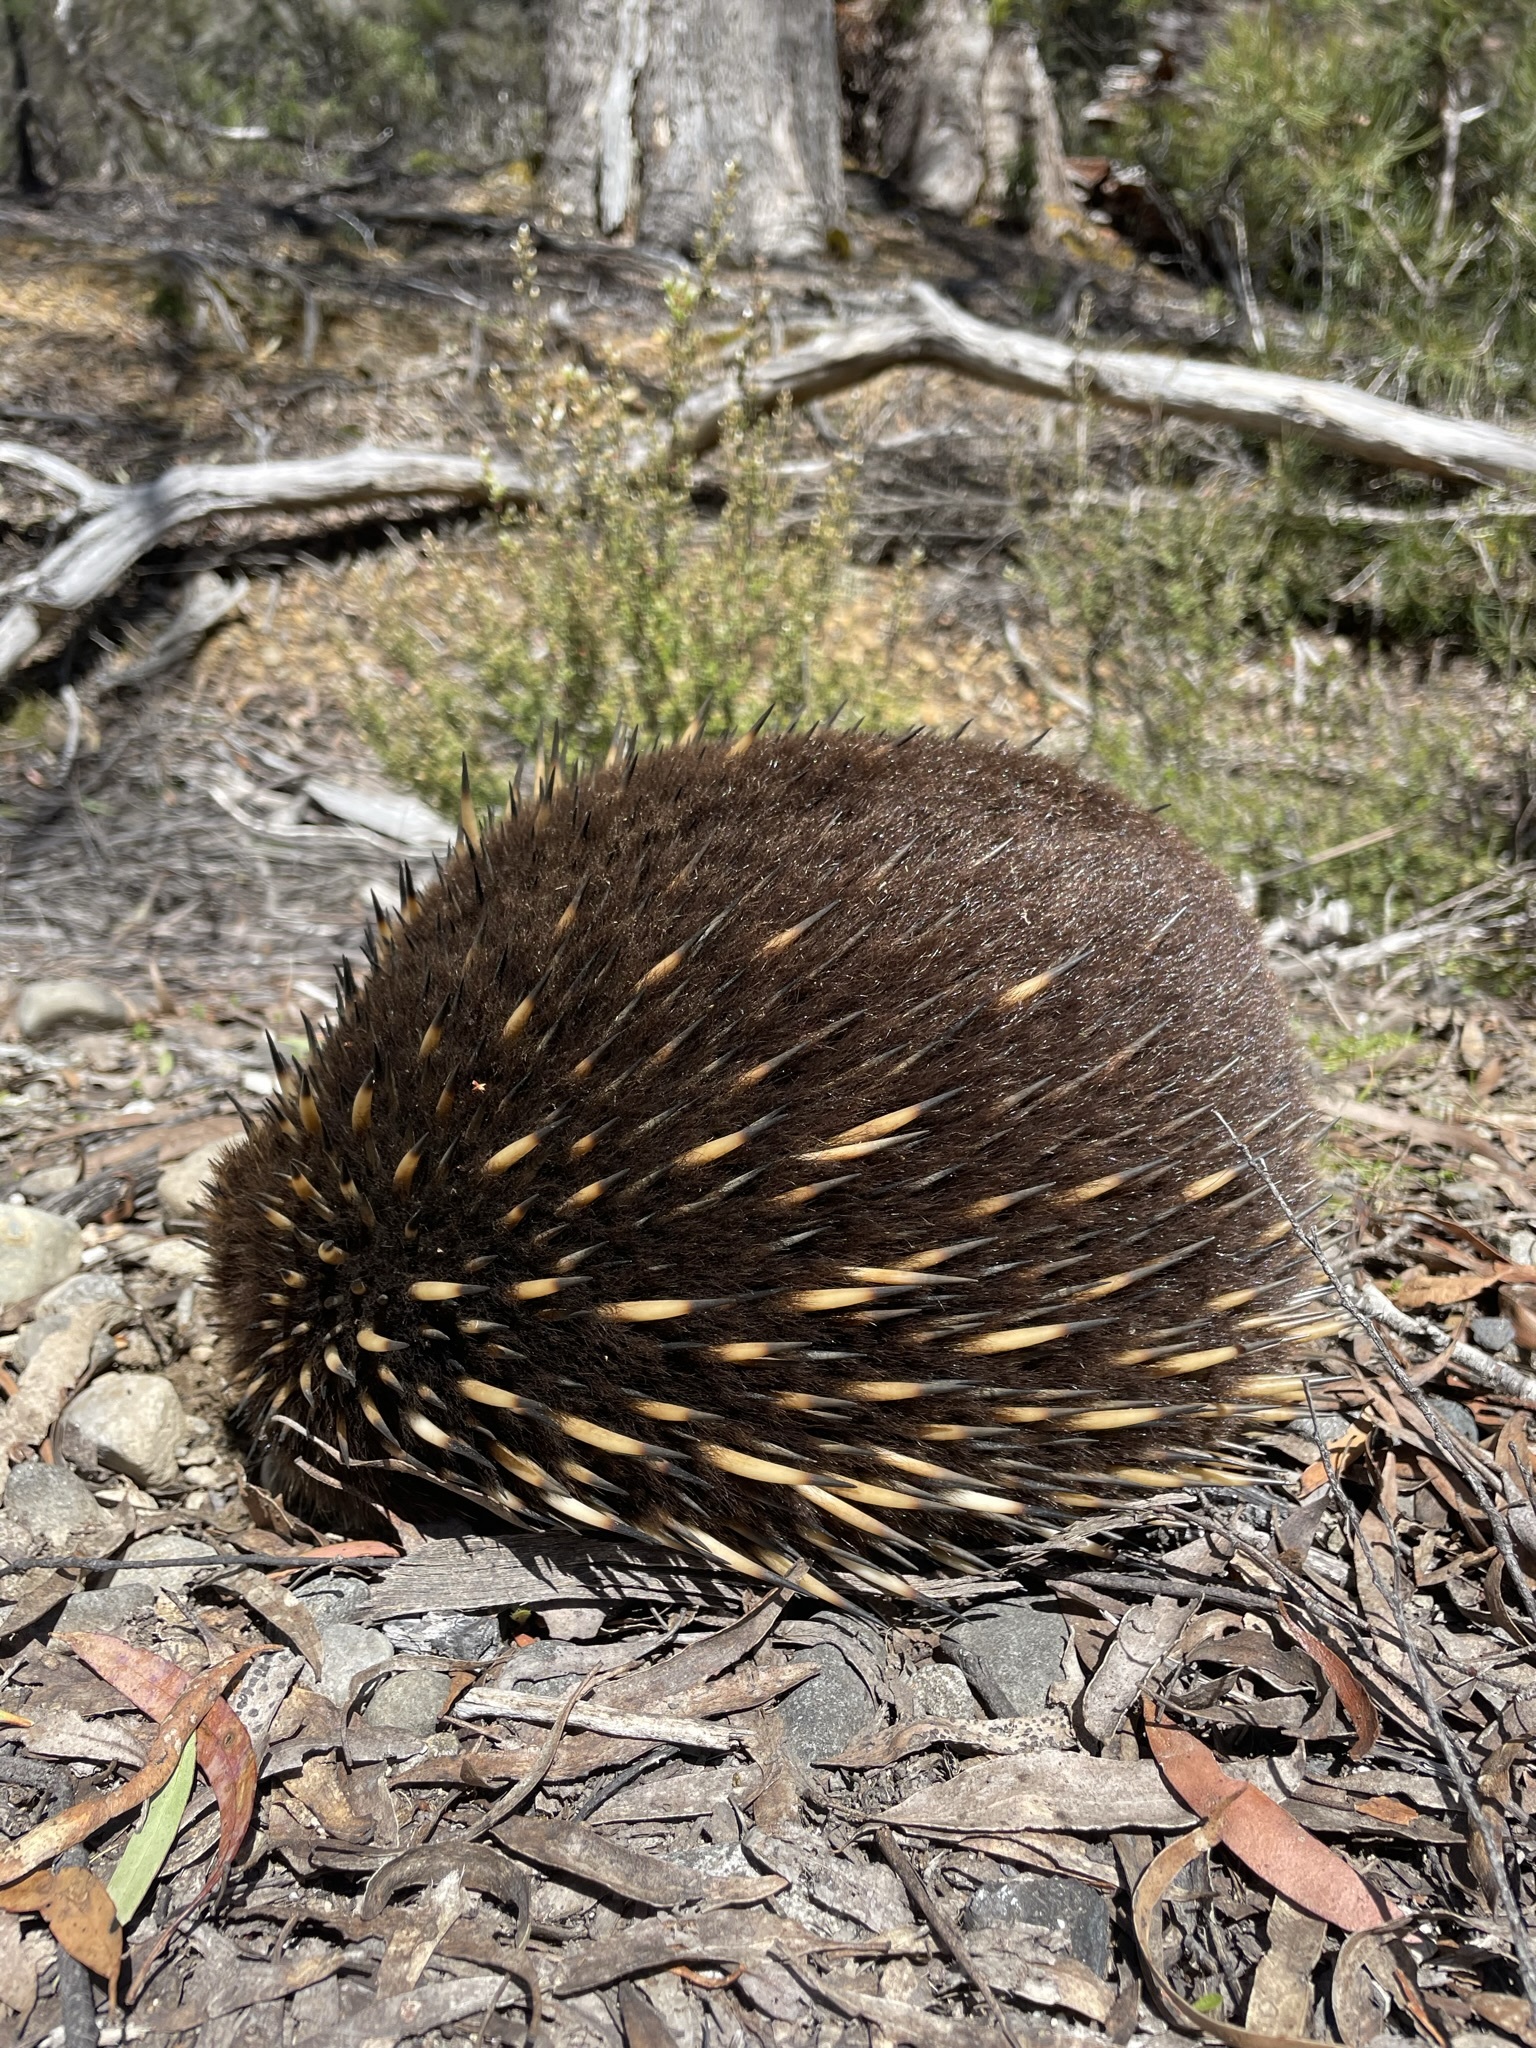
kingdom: Animalia
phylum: Chordata
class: Mammalia
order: Monotremata
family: Tachyglossidae
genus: Tachyglossus
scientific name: Tachyglossus aculeatus
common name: Short-beaked echidna
